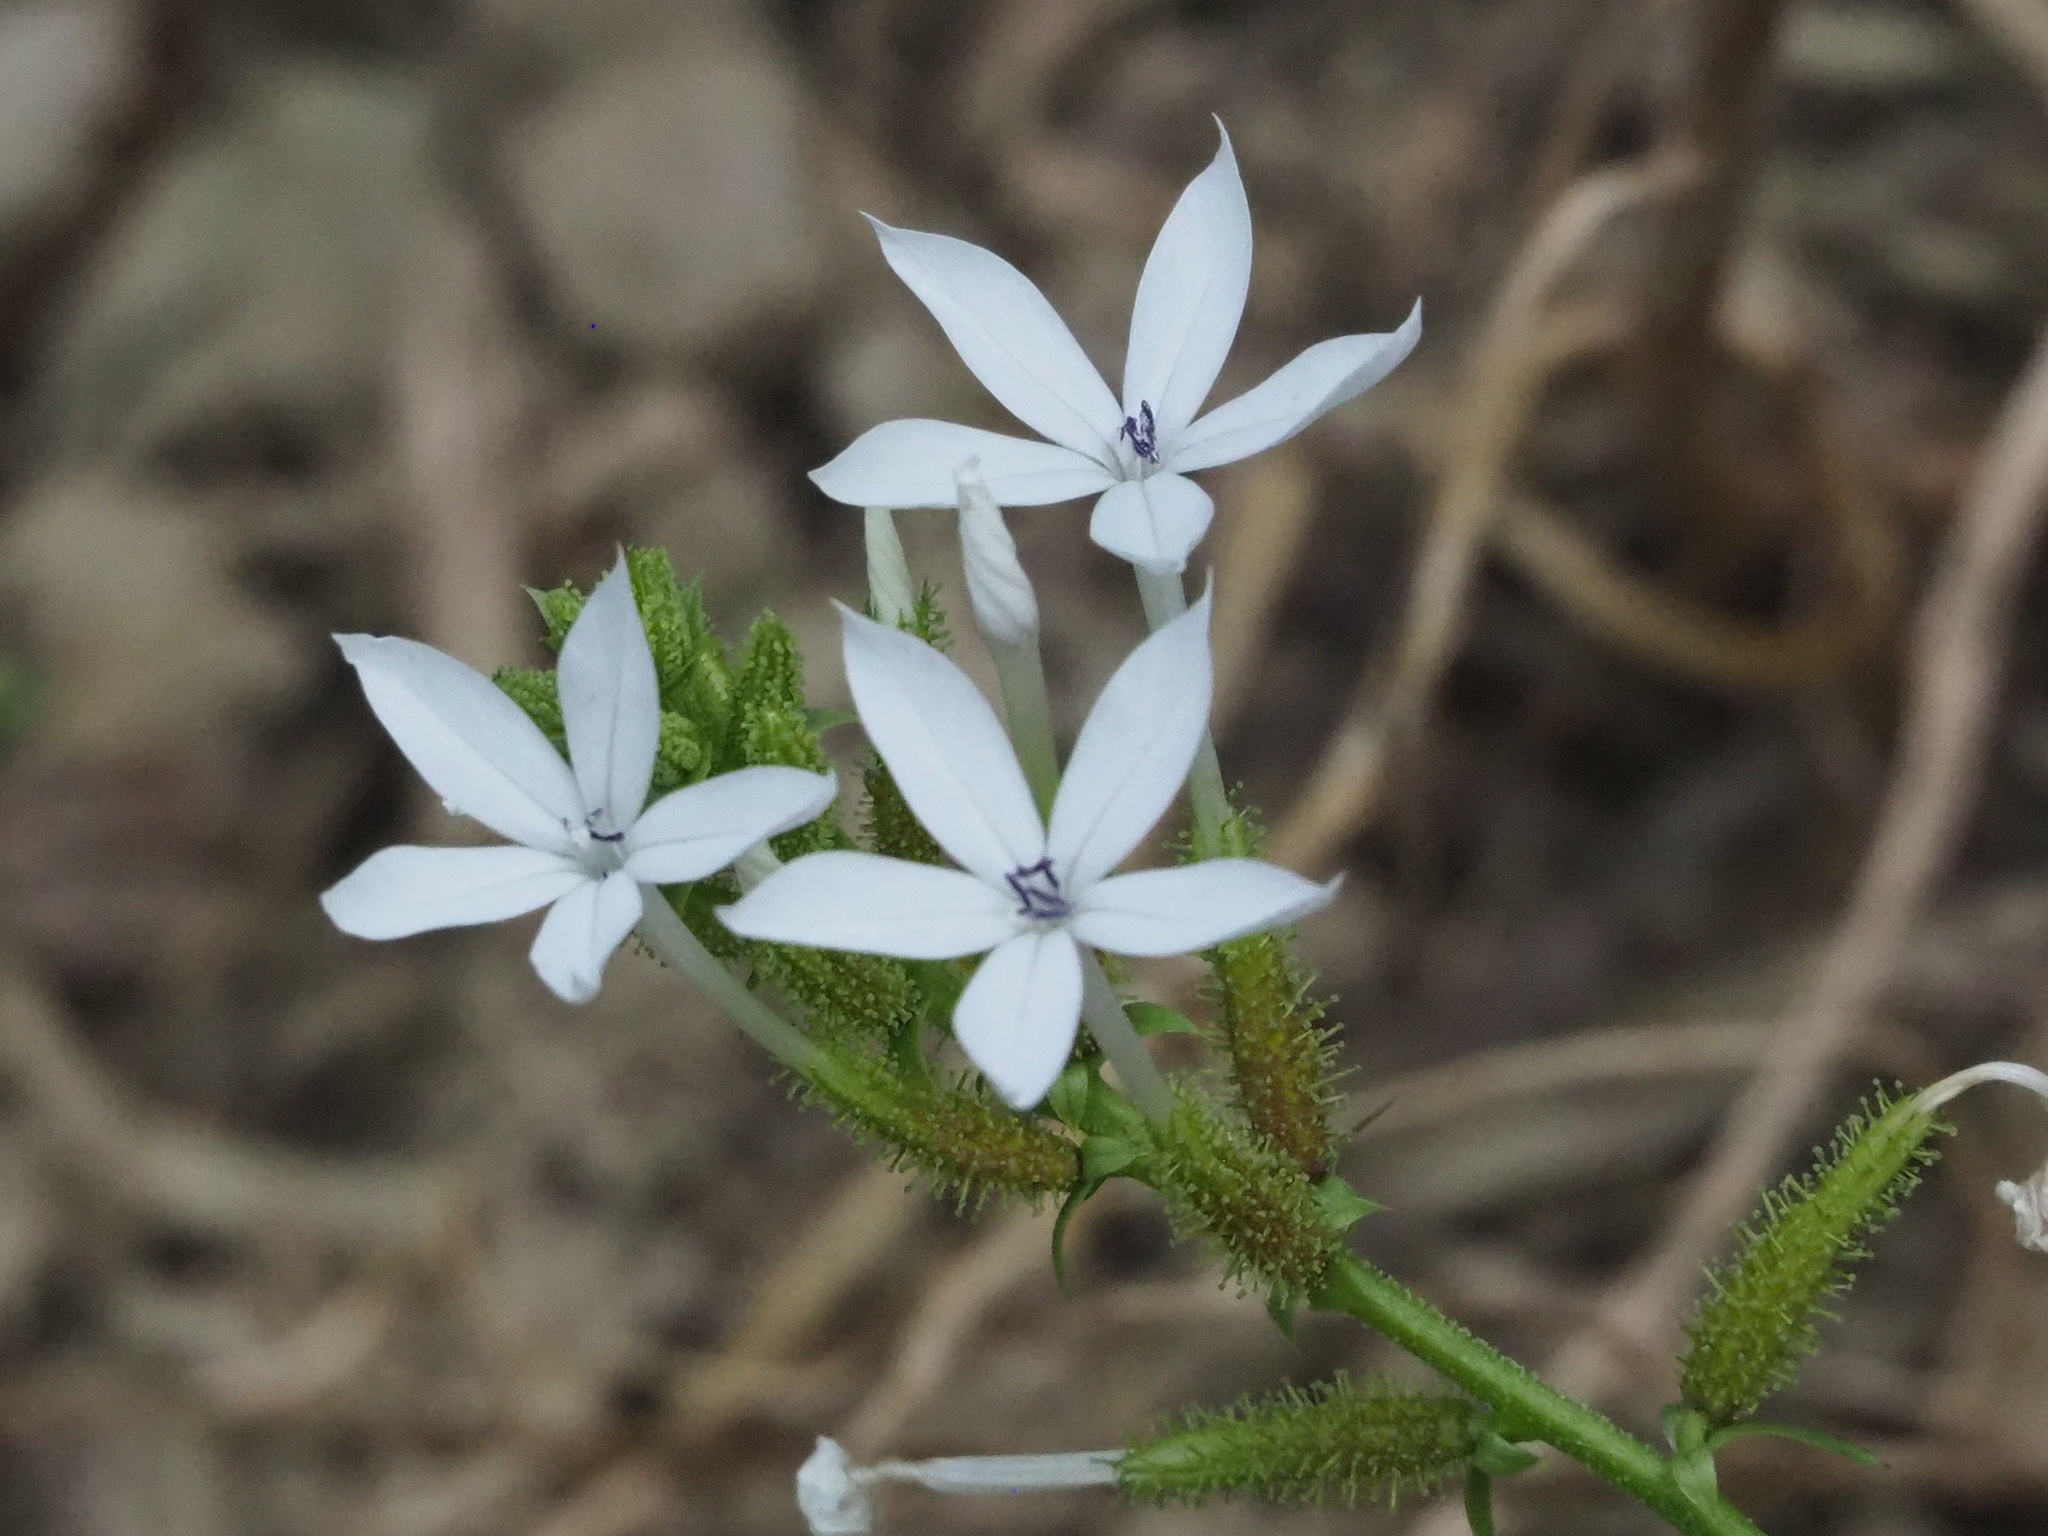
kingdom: Plantae
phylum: Tracheophyta
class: Magnoliopsida
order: Caryophyllales
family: Plumbaginaceae
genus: Plumbago
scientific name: Plumbago zeylanica
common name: Doctorbush
